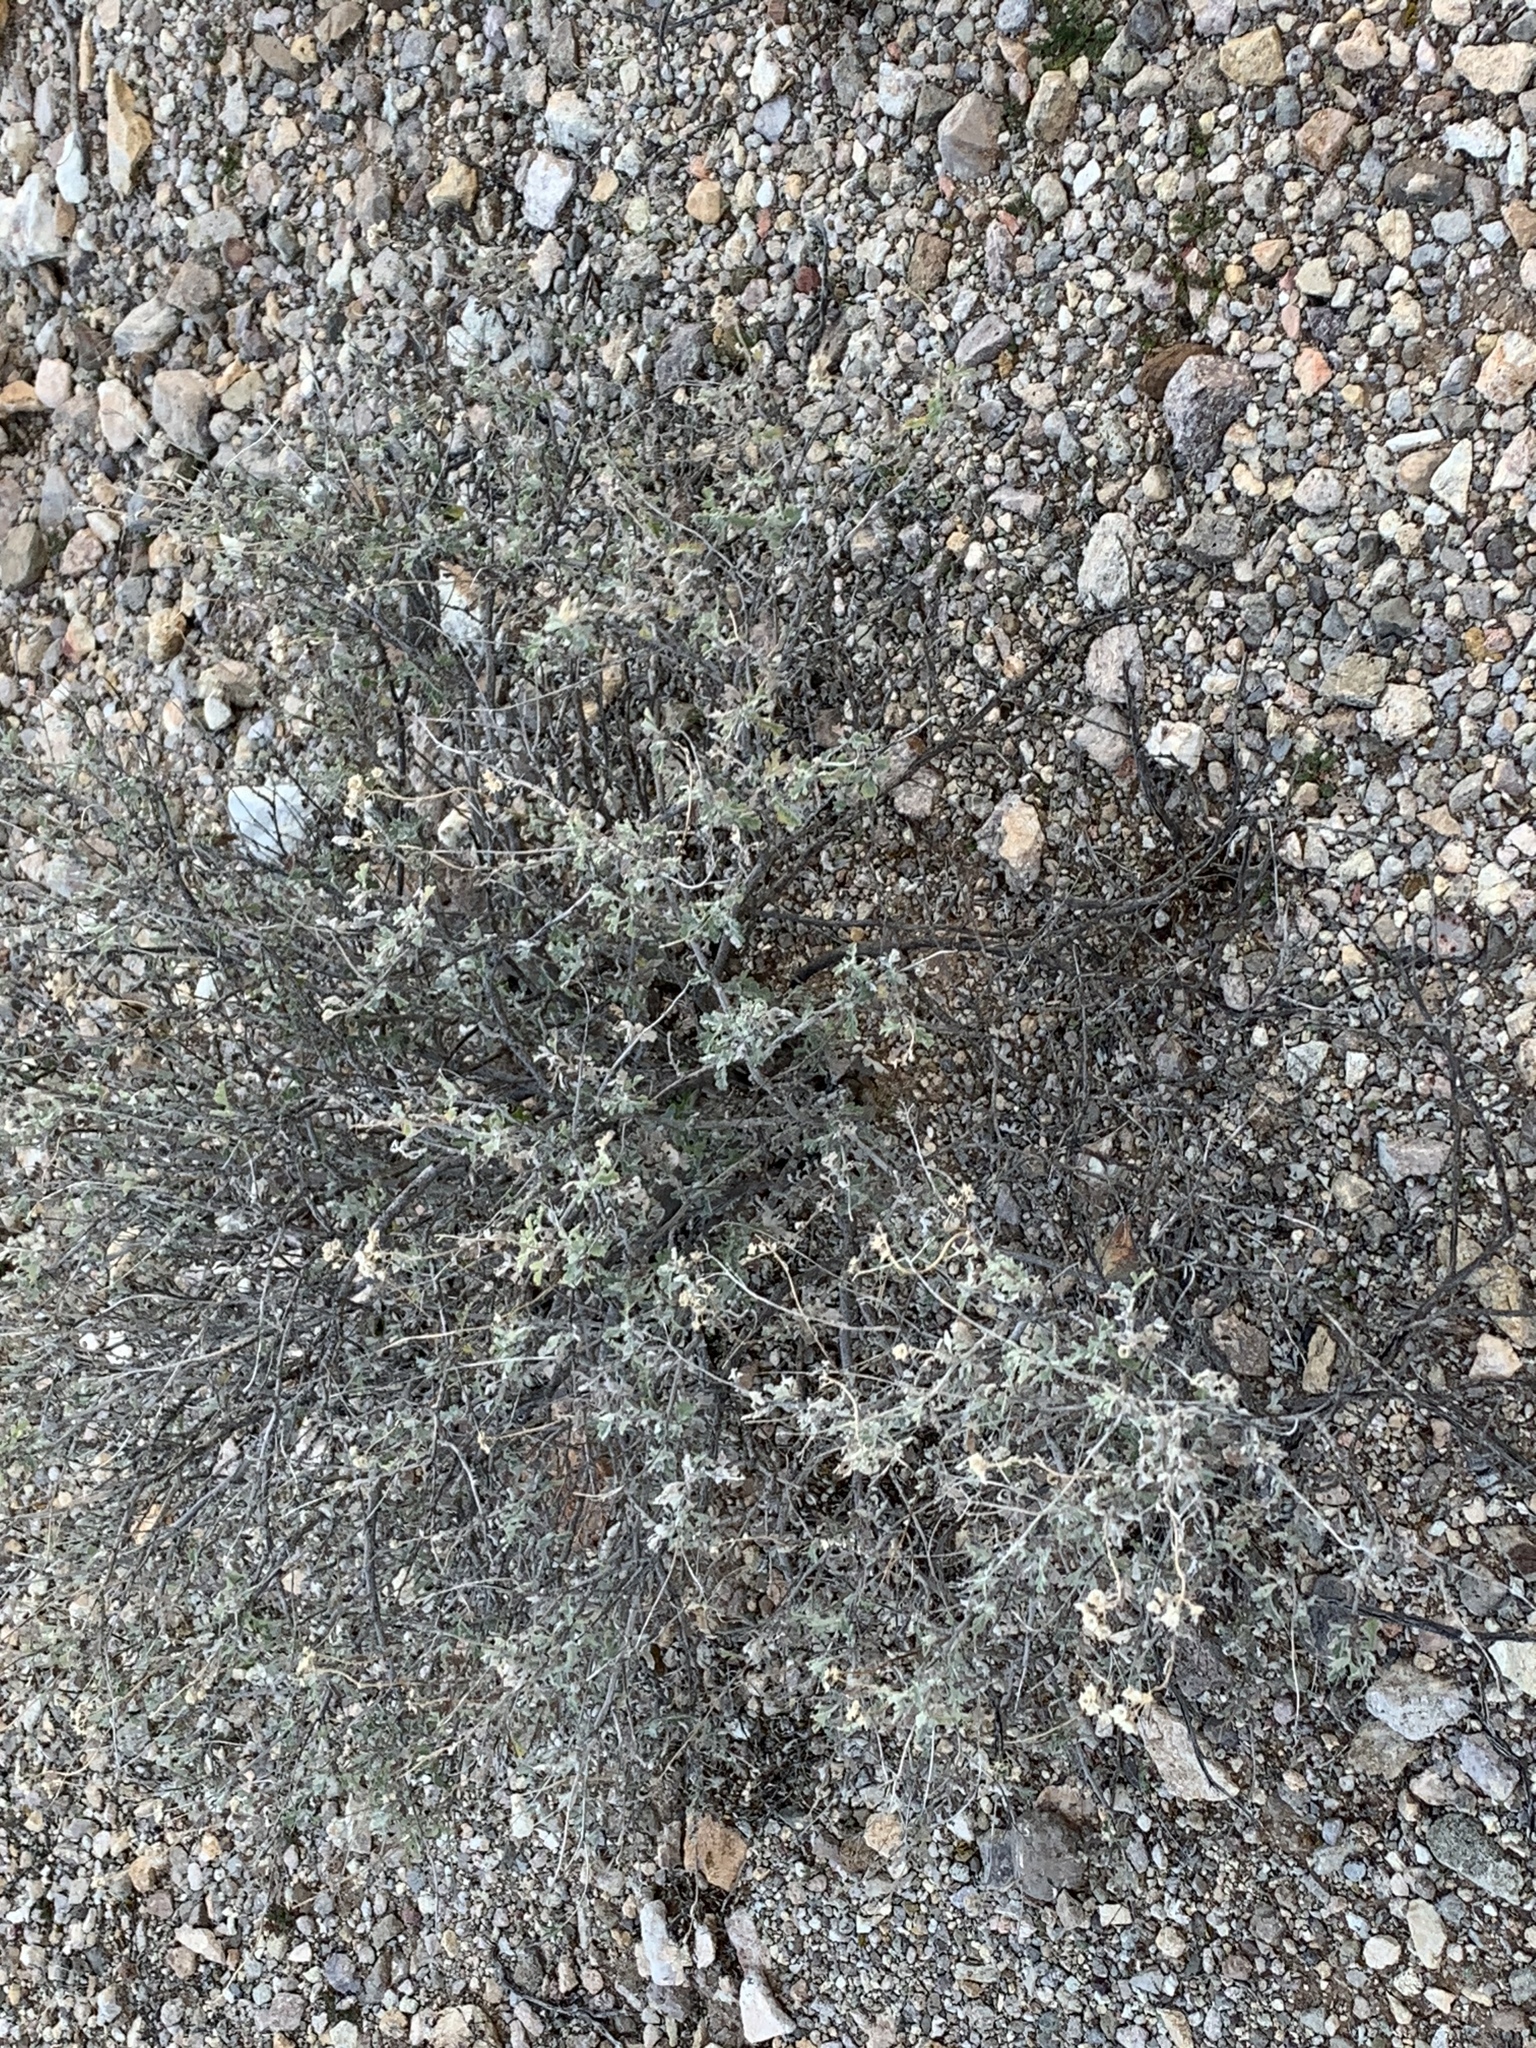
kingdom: Plantae
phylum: Tracheophyta
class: Magnoliopsida
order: Asterales
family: Asteraceae
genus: Parthenium
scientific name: Parthenium incanum
